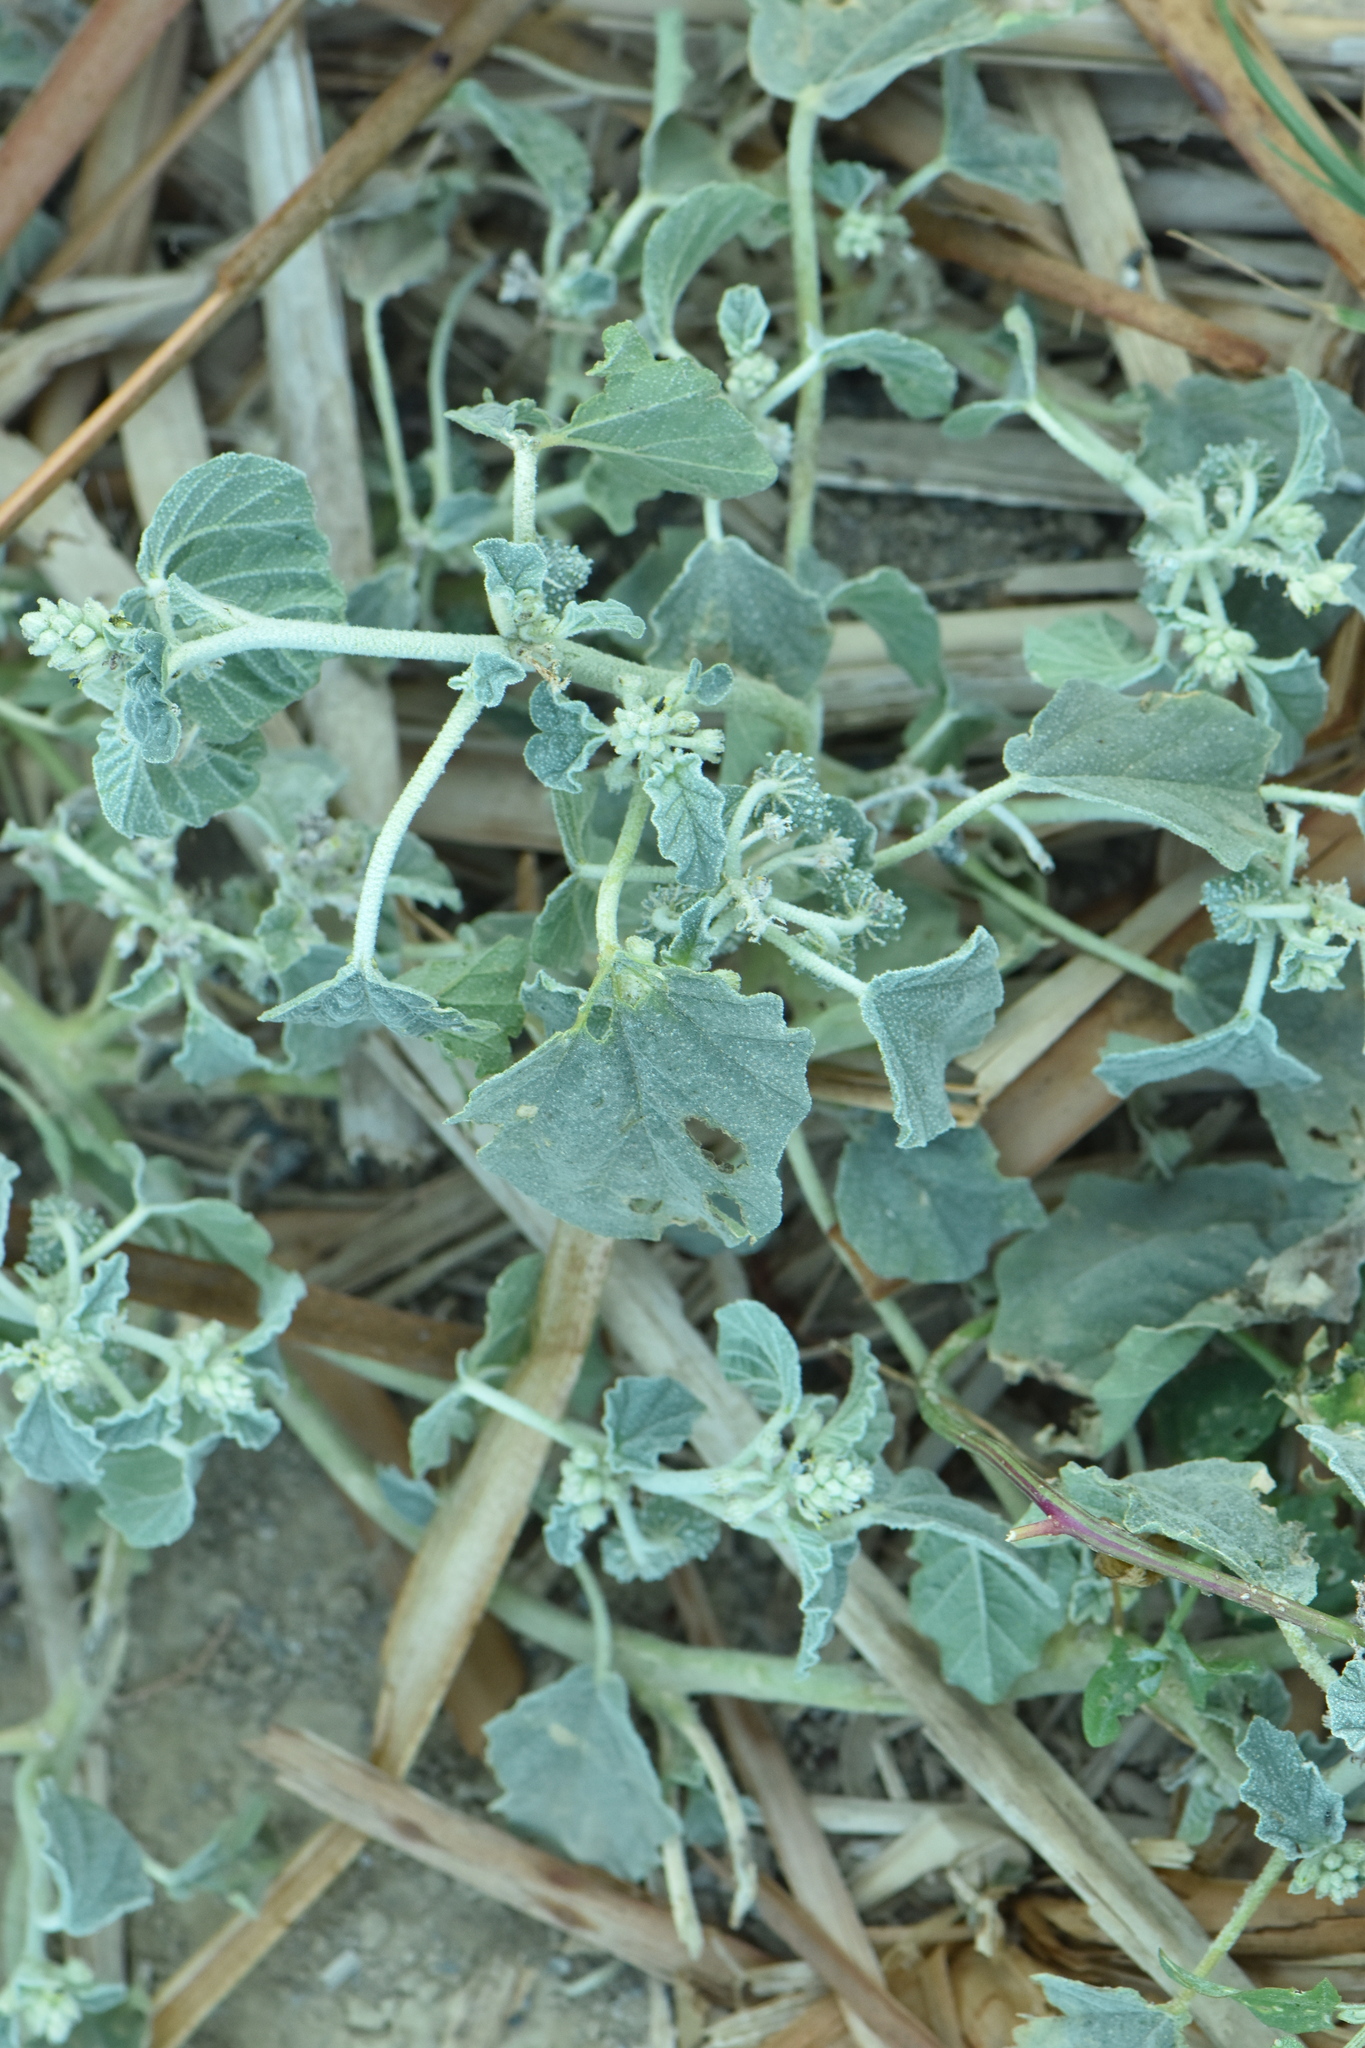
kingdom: Plantae
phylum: Tracheophyta
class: Magnoliopsida
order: Malpighiales
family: Euphorbiaceae
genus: Chrozophora
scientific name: Chrozophora tinctoria
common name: Dyer's litmus
